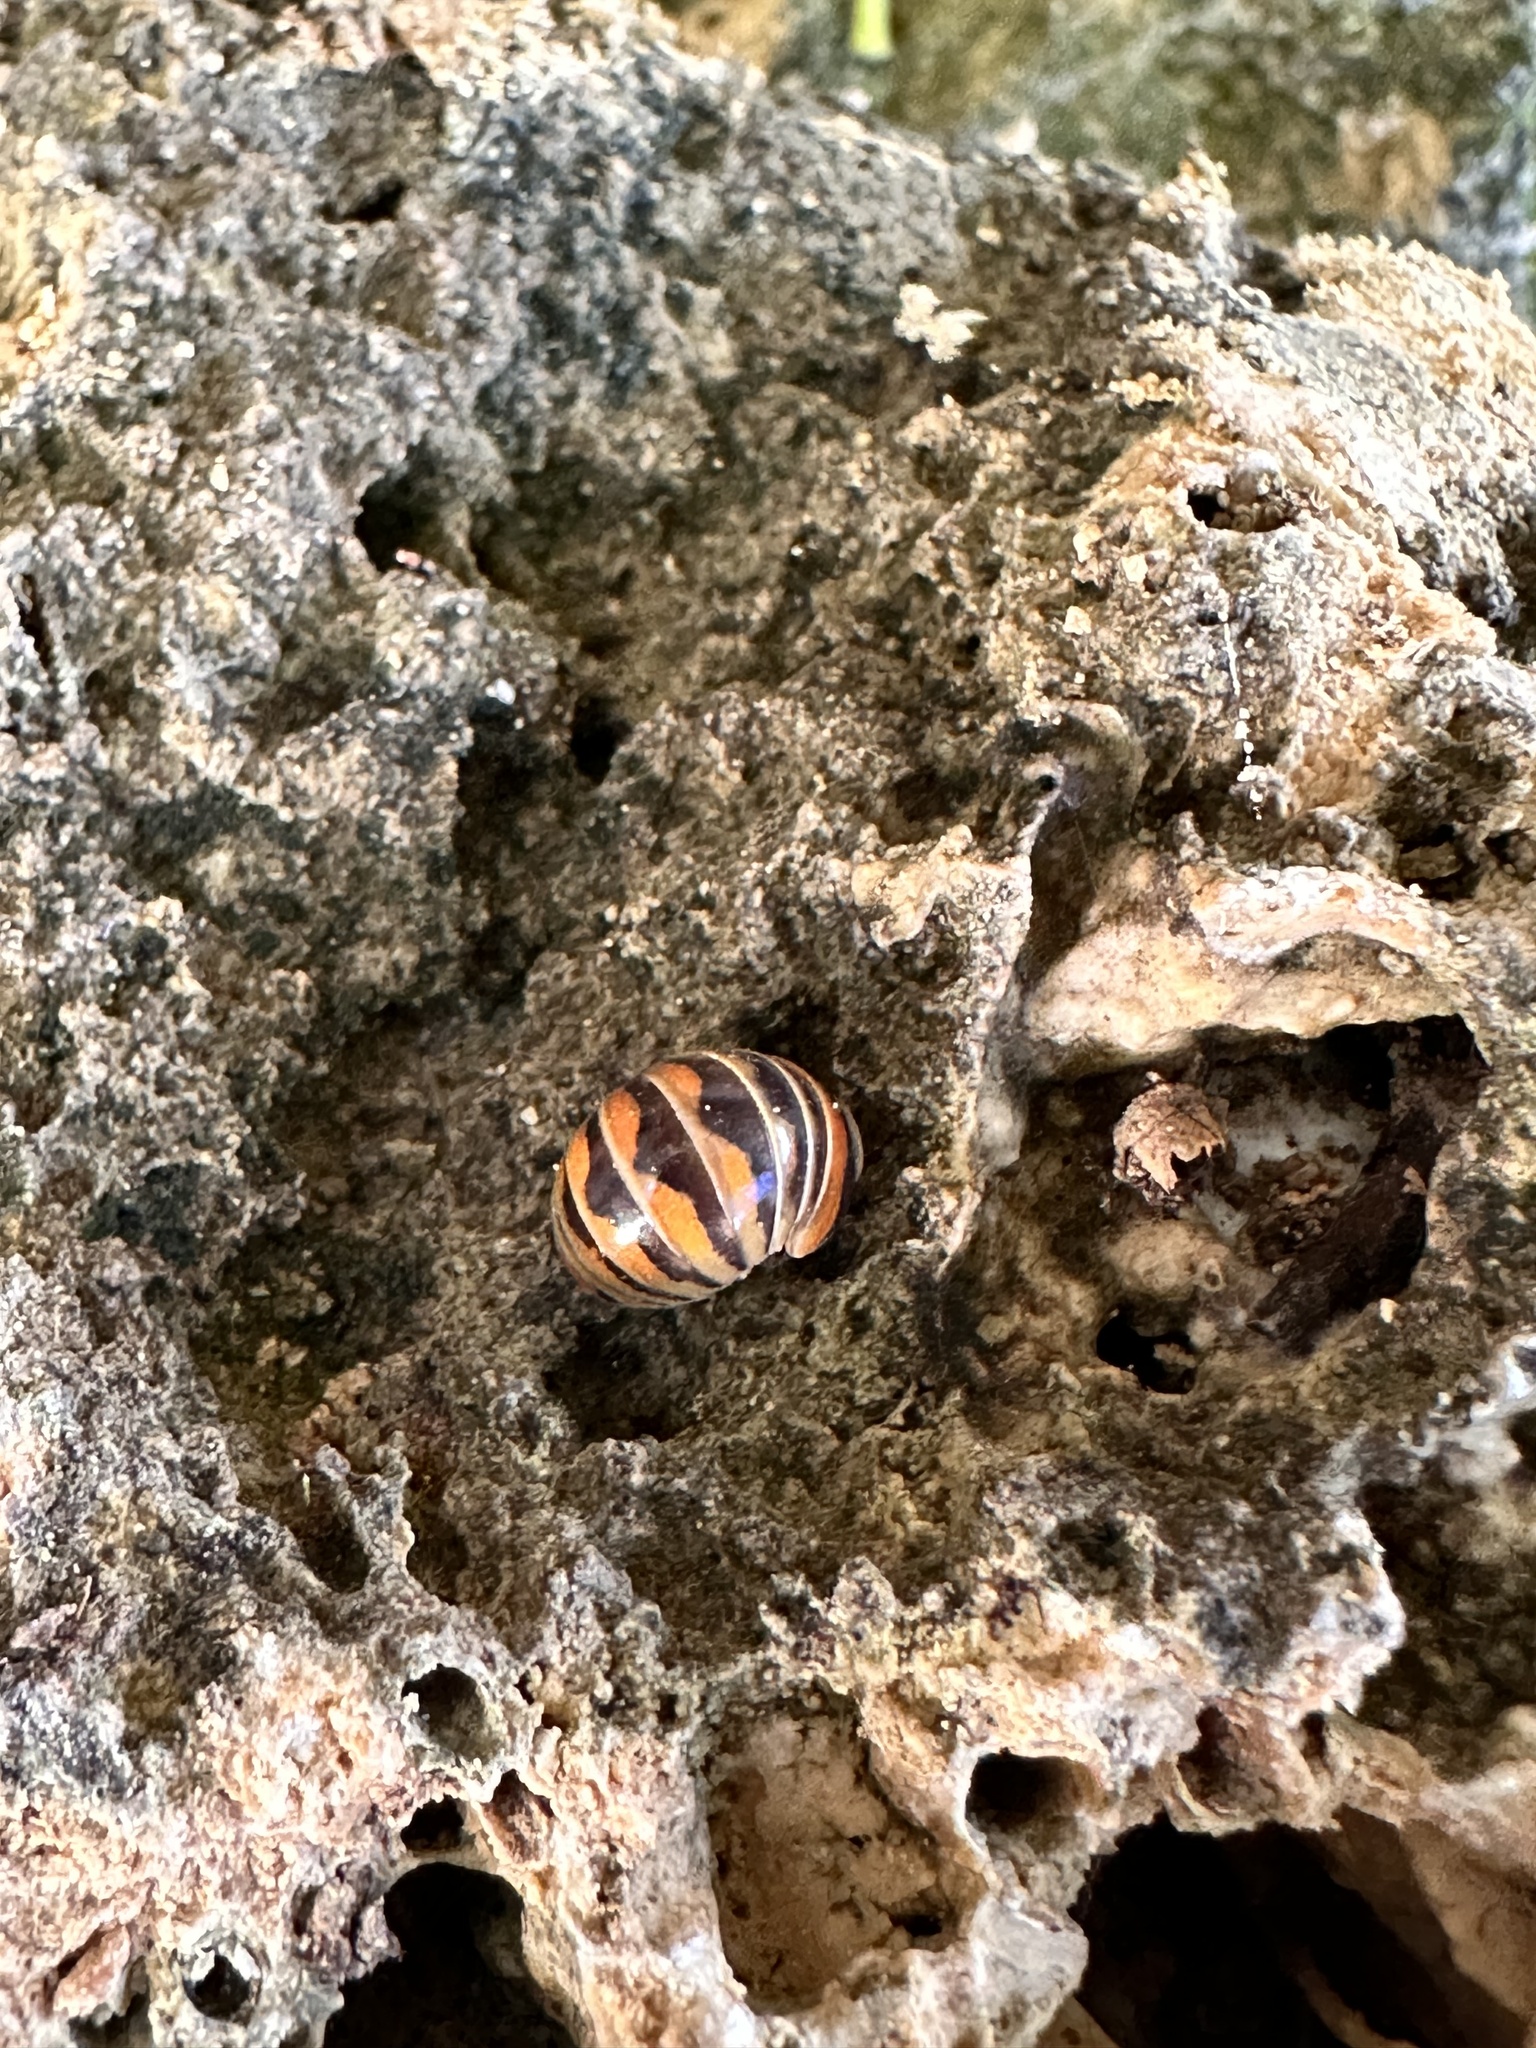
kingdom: Animalia
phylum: Arthropoda
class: Diplopoda
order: Glomerida
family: Glomeridae
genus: Glomeris
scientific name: Glomeris pulchra
